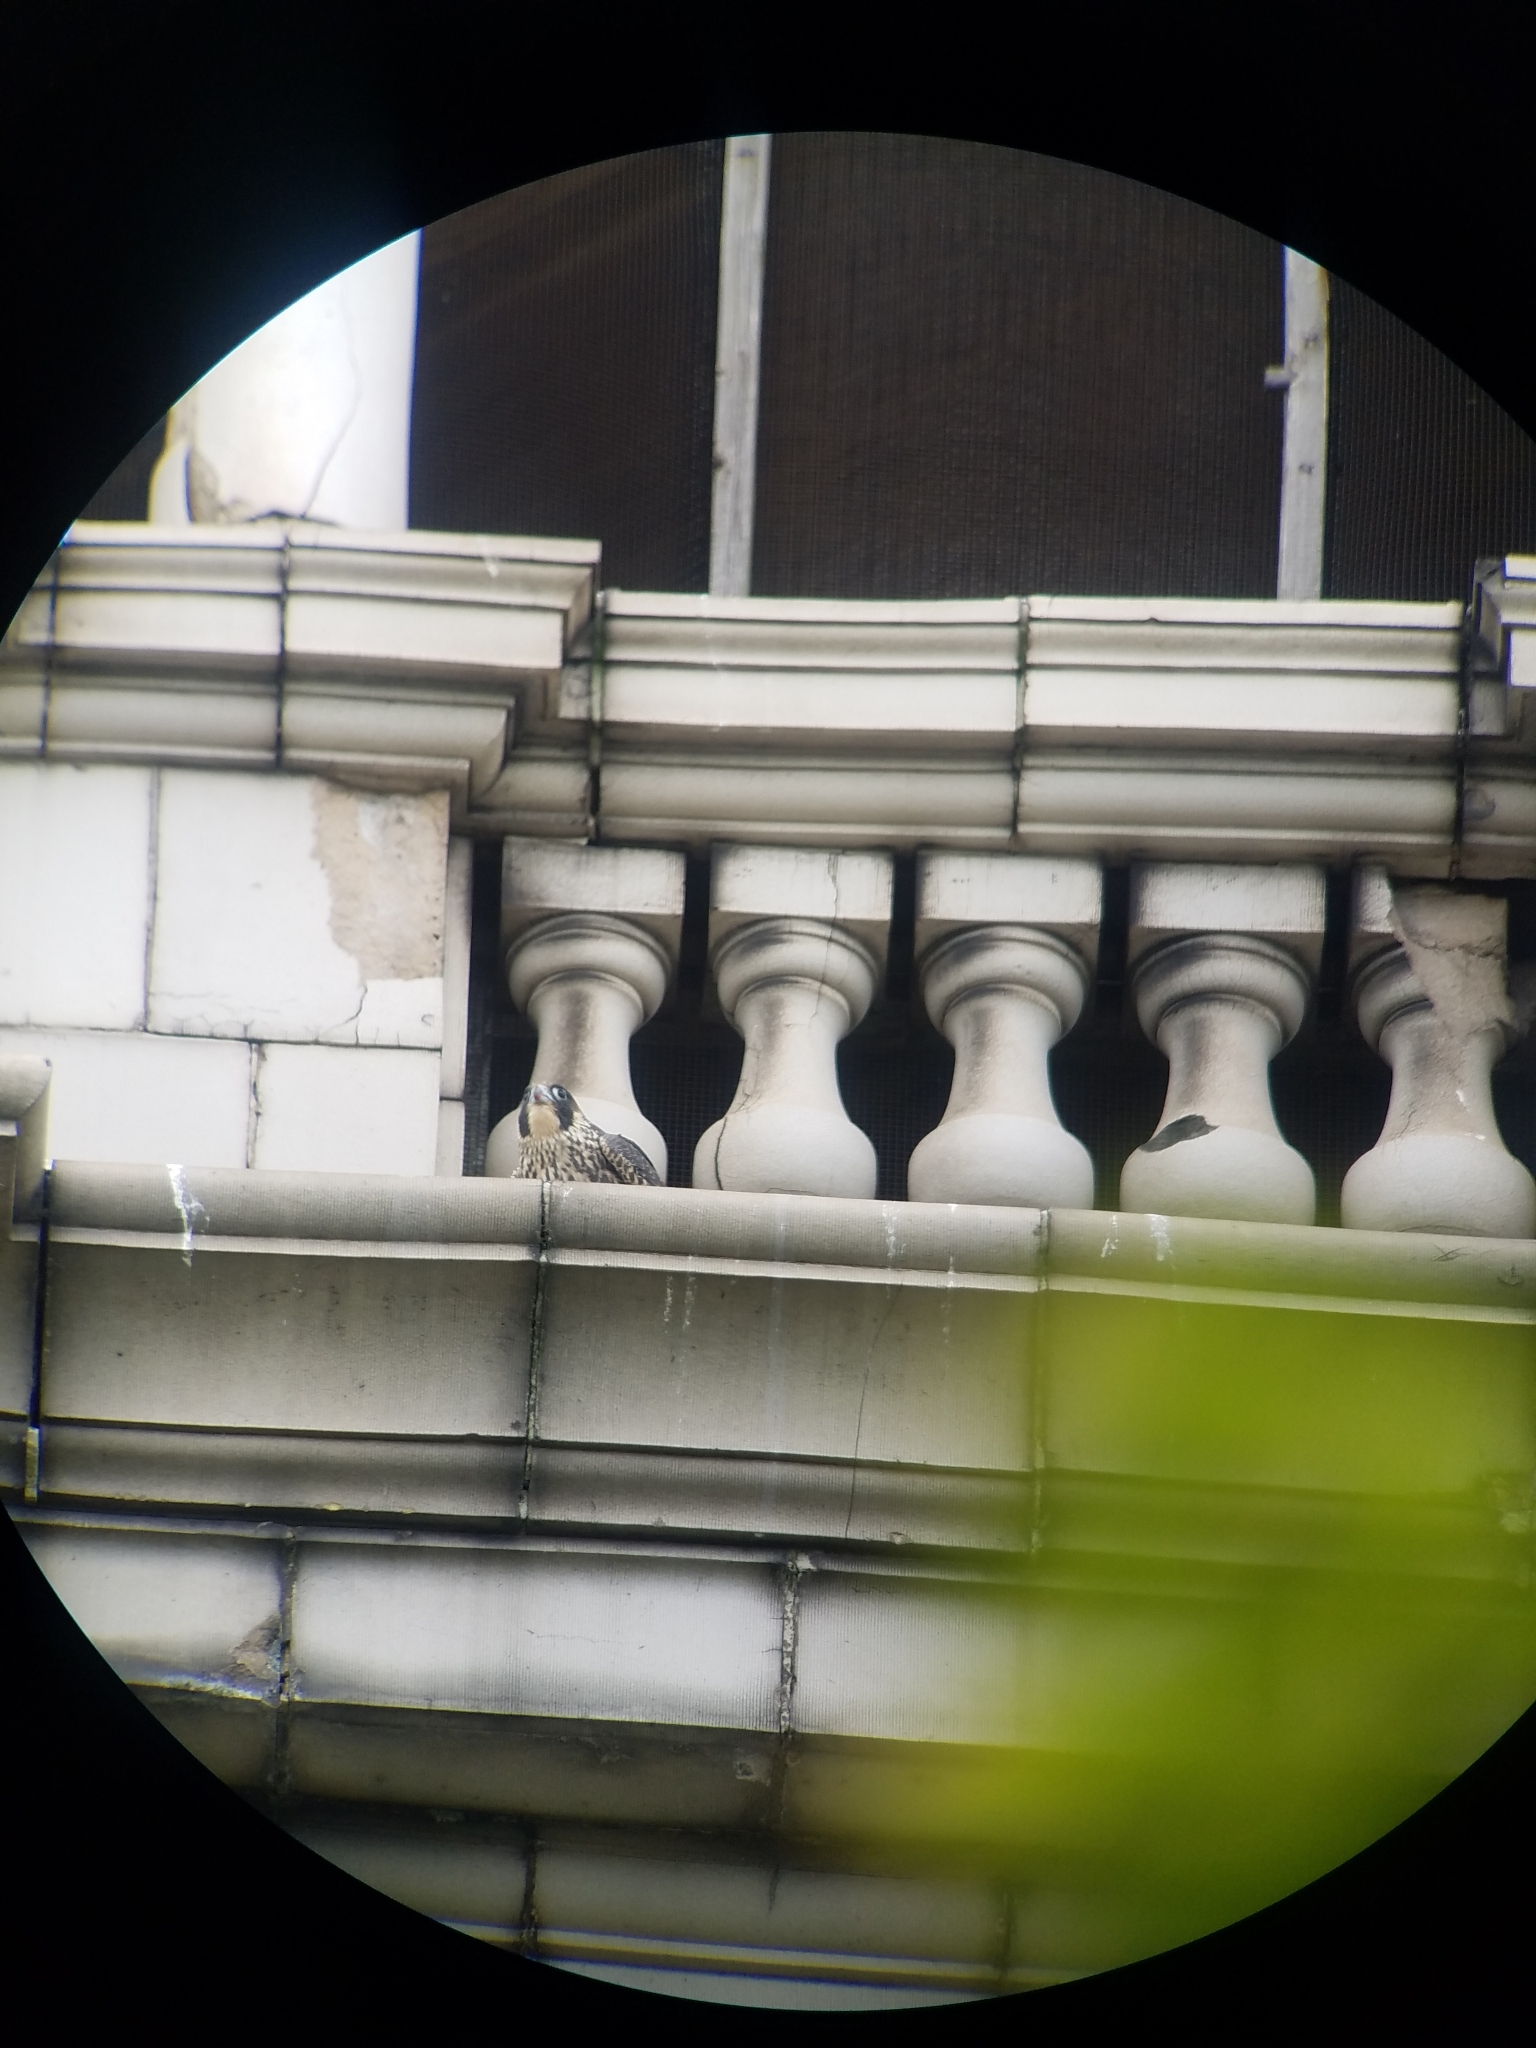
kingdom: Animalia
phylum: Chordata
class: Aves
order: Falconiformes
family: Falconidae
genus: Falco
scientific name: Falco peregrinus
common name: Peregrine falcon
